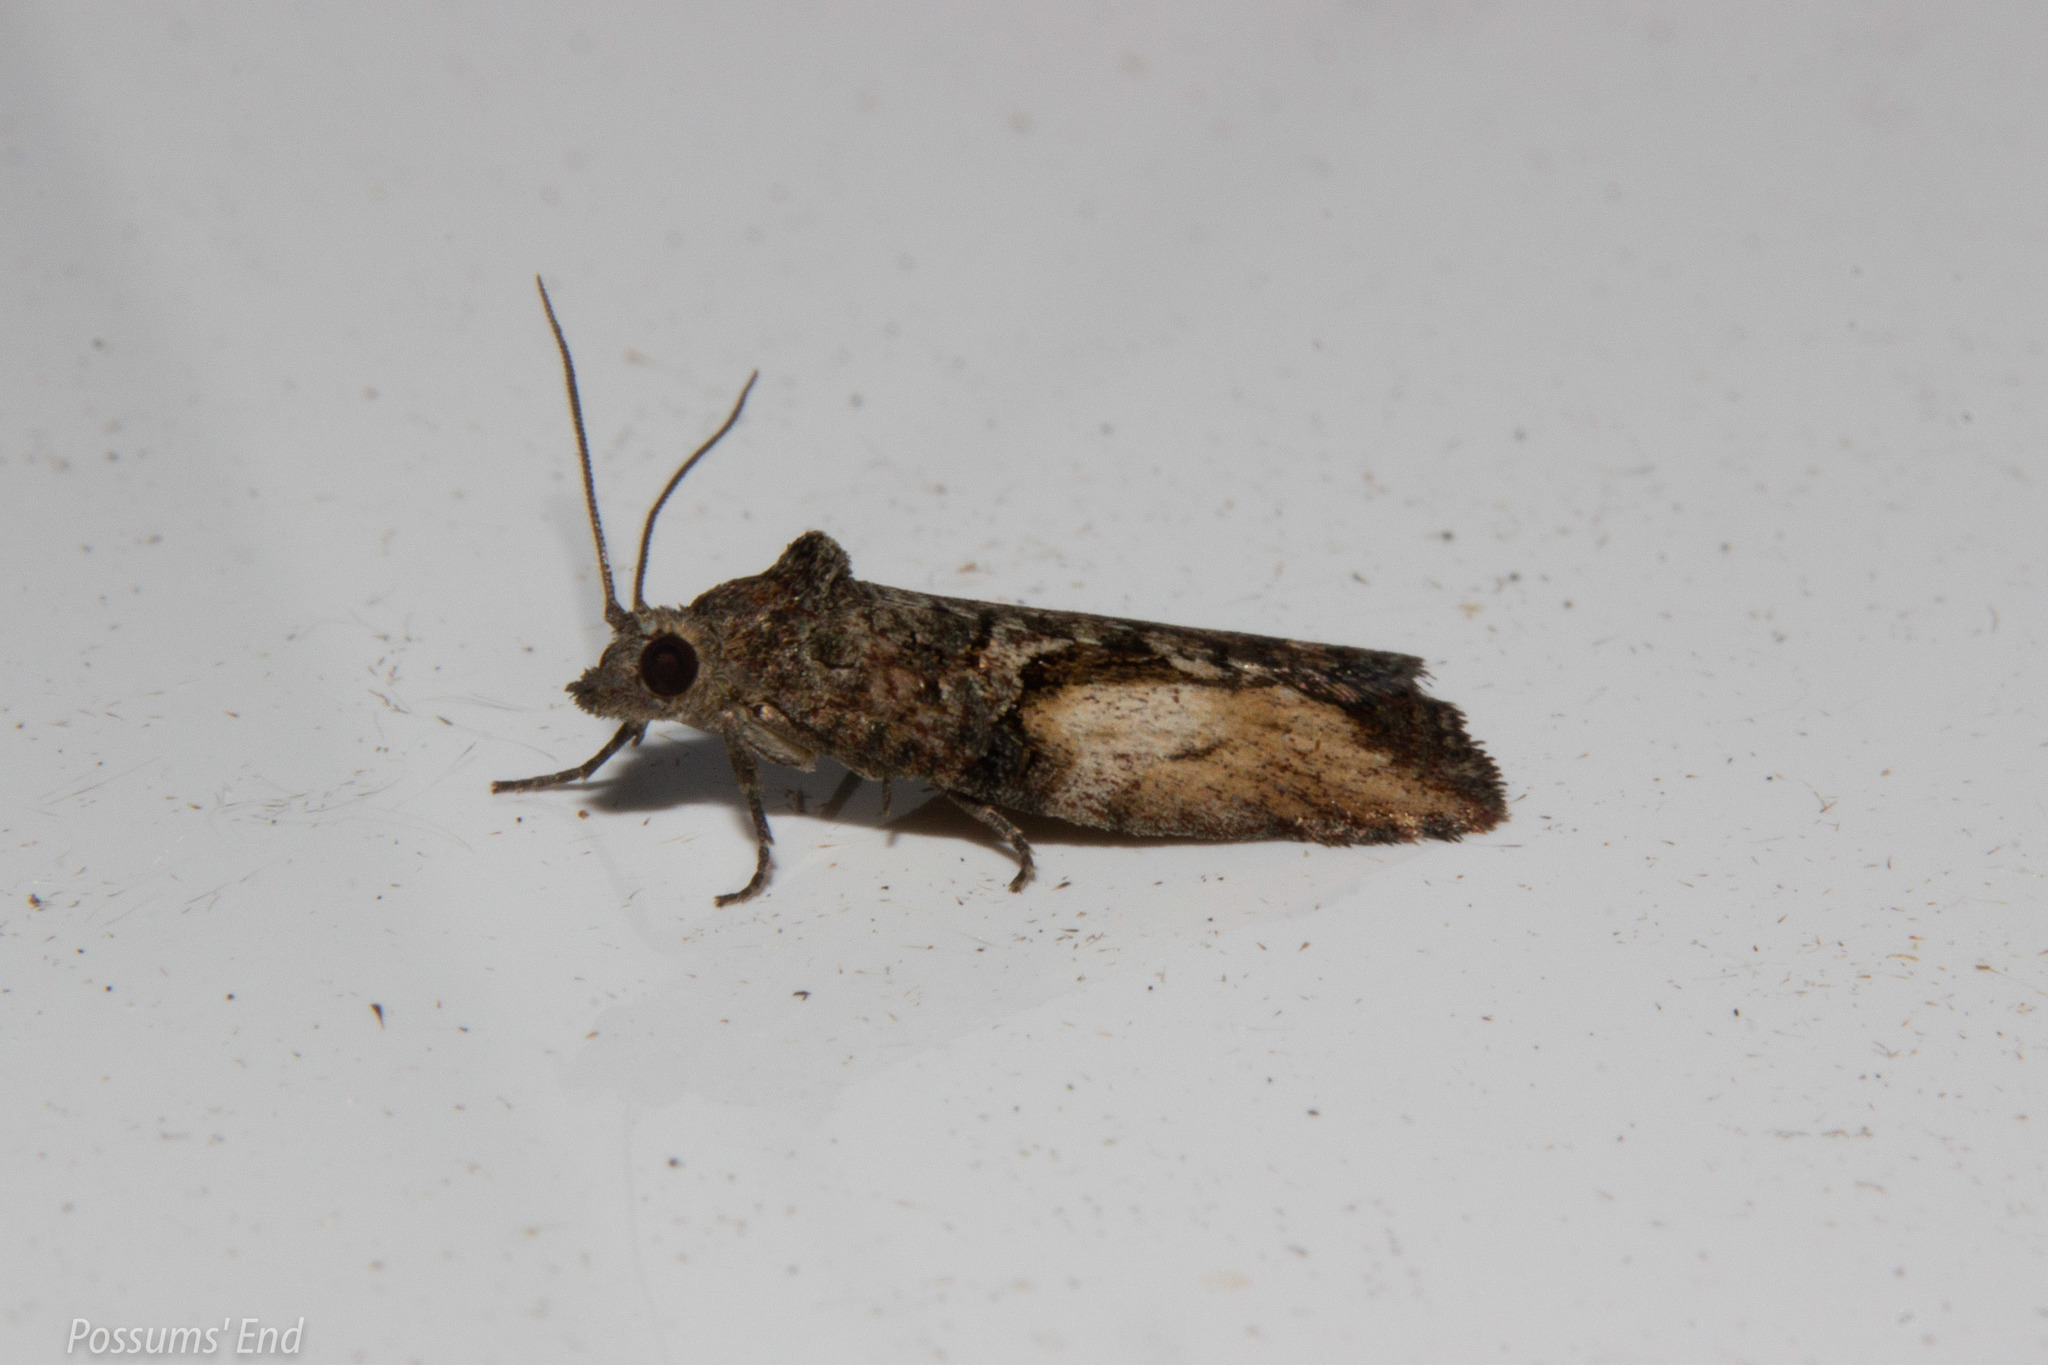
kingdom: Animalia
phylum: Arthropoda
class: Insecta
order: Lepidoptera
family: Tortricidae
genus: Harmologa
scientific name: Harmologa scoliastis
